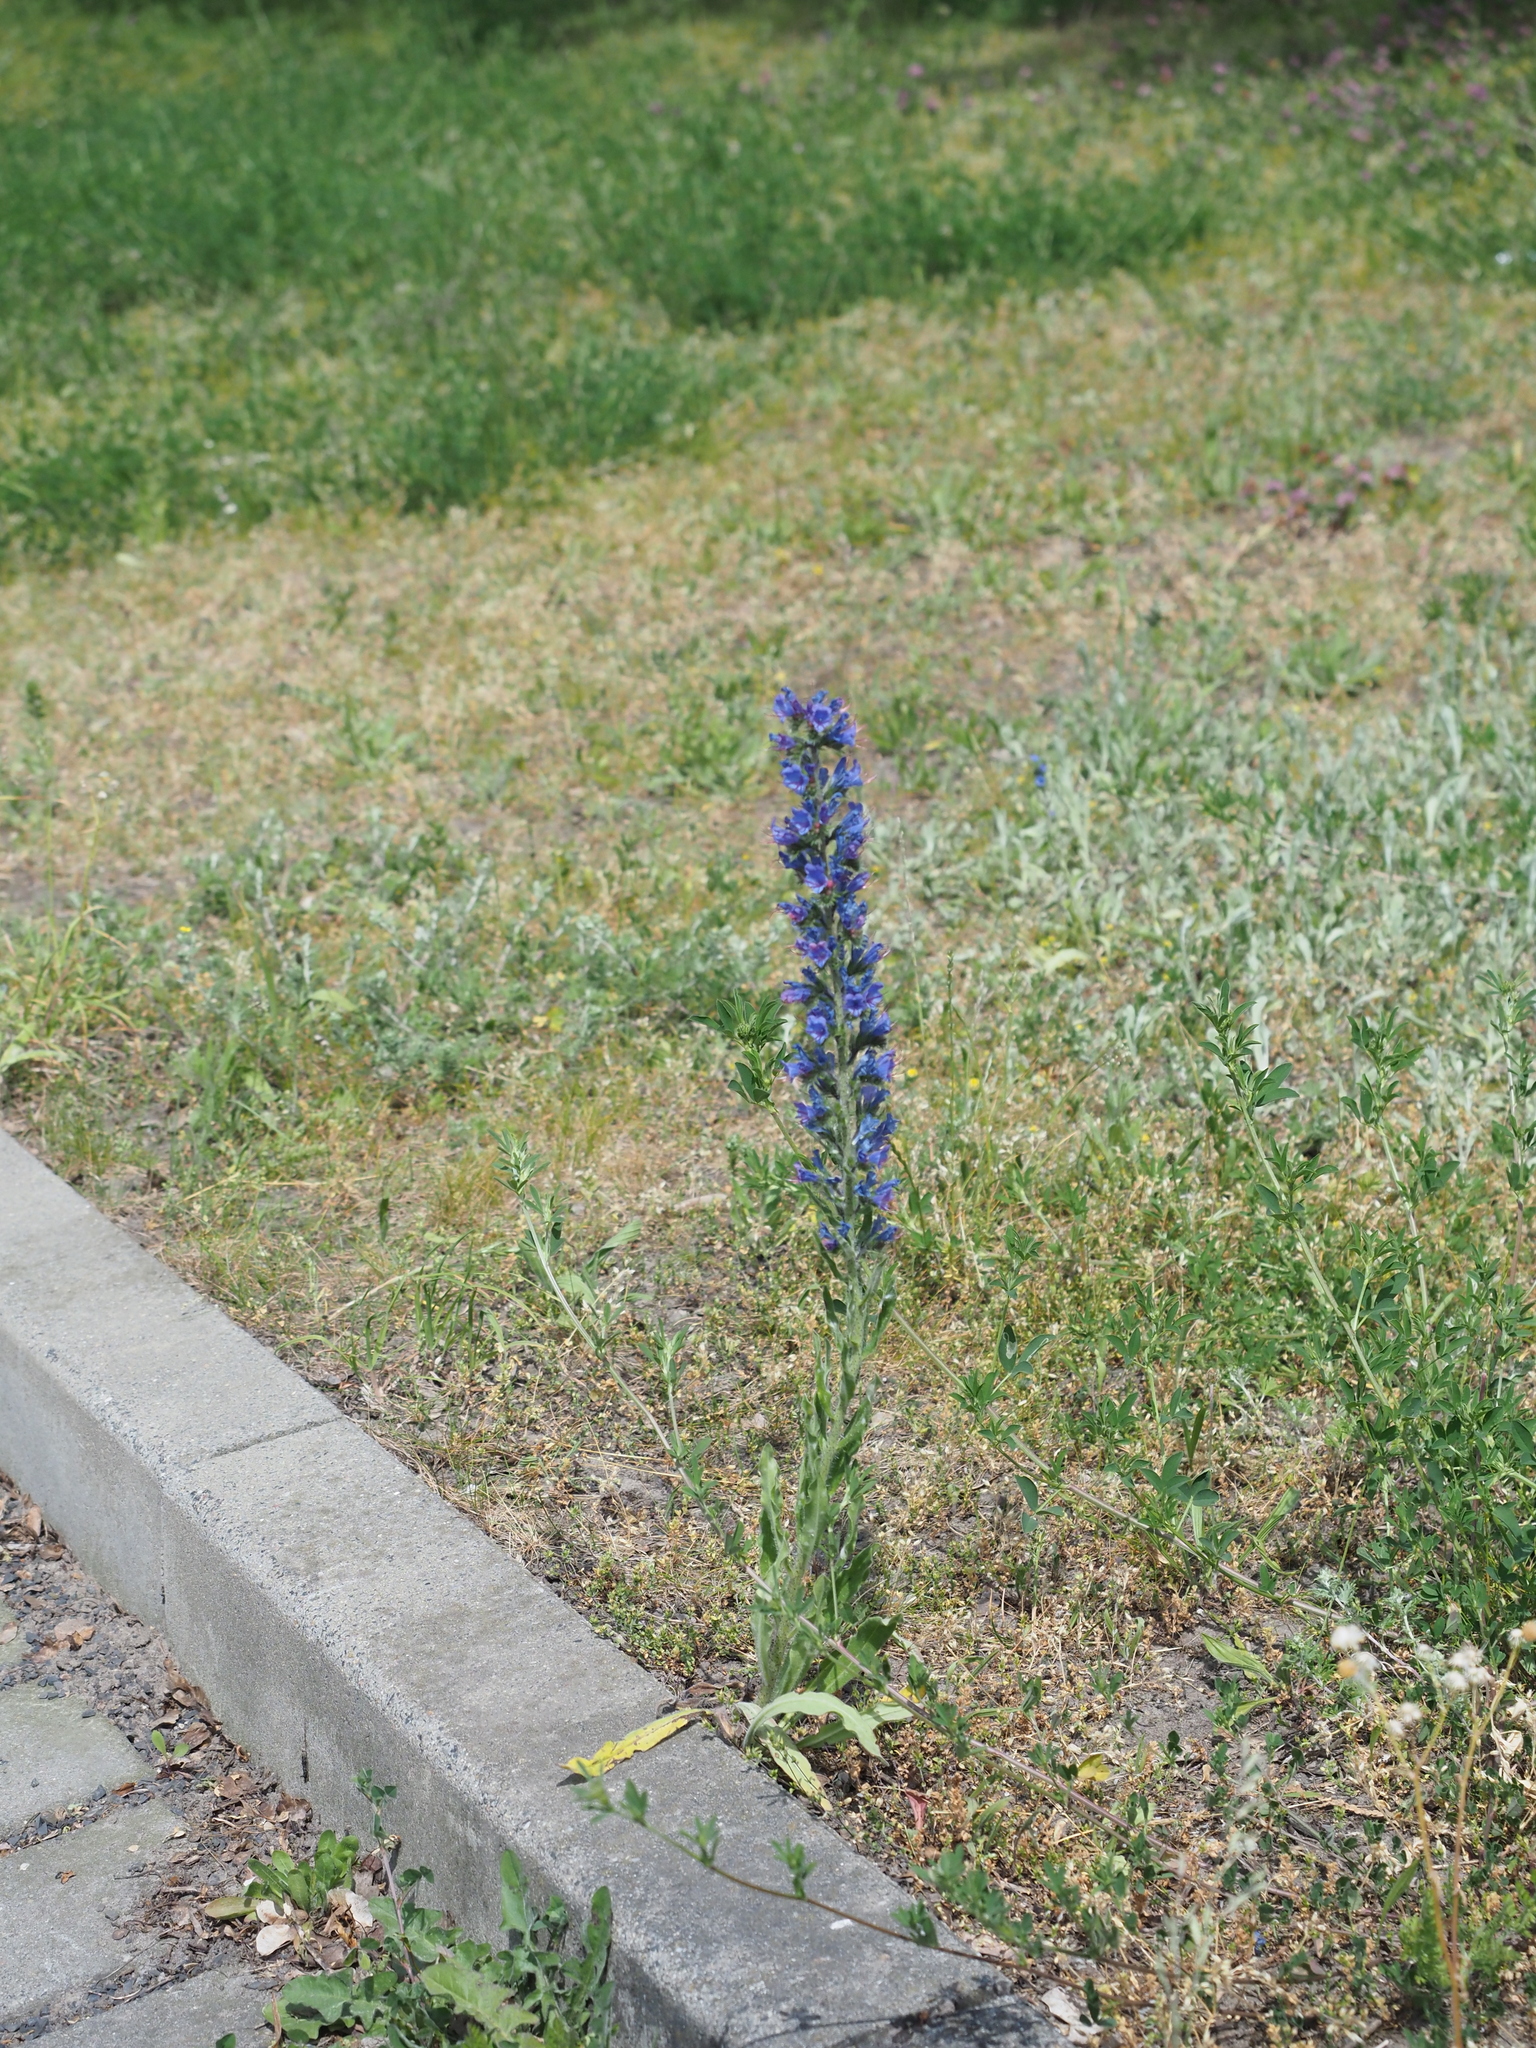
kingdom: Plantae
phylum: Tracheophyta
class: Magnoliopsida
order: Boraginales
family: Boraginaceae
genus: Echium
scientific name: Echium vulgare
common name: Common viper's bugloss
